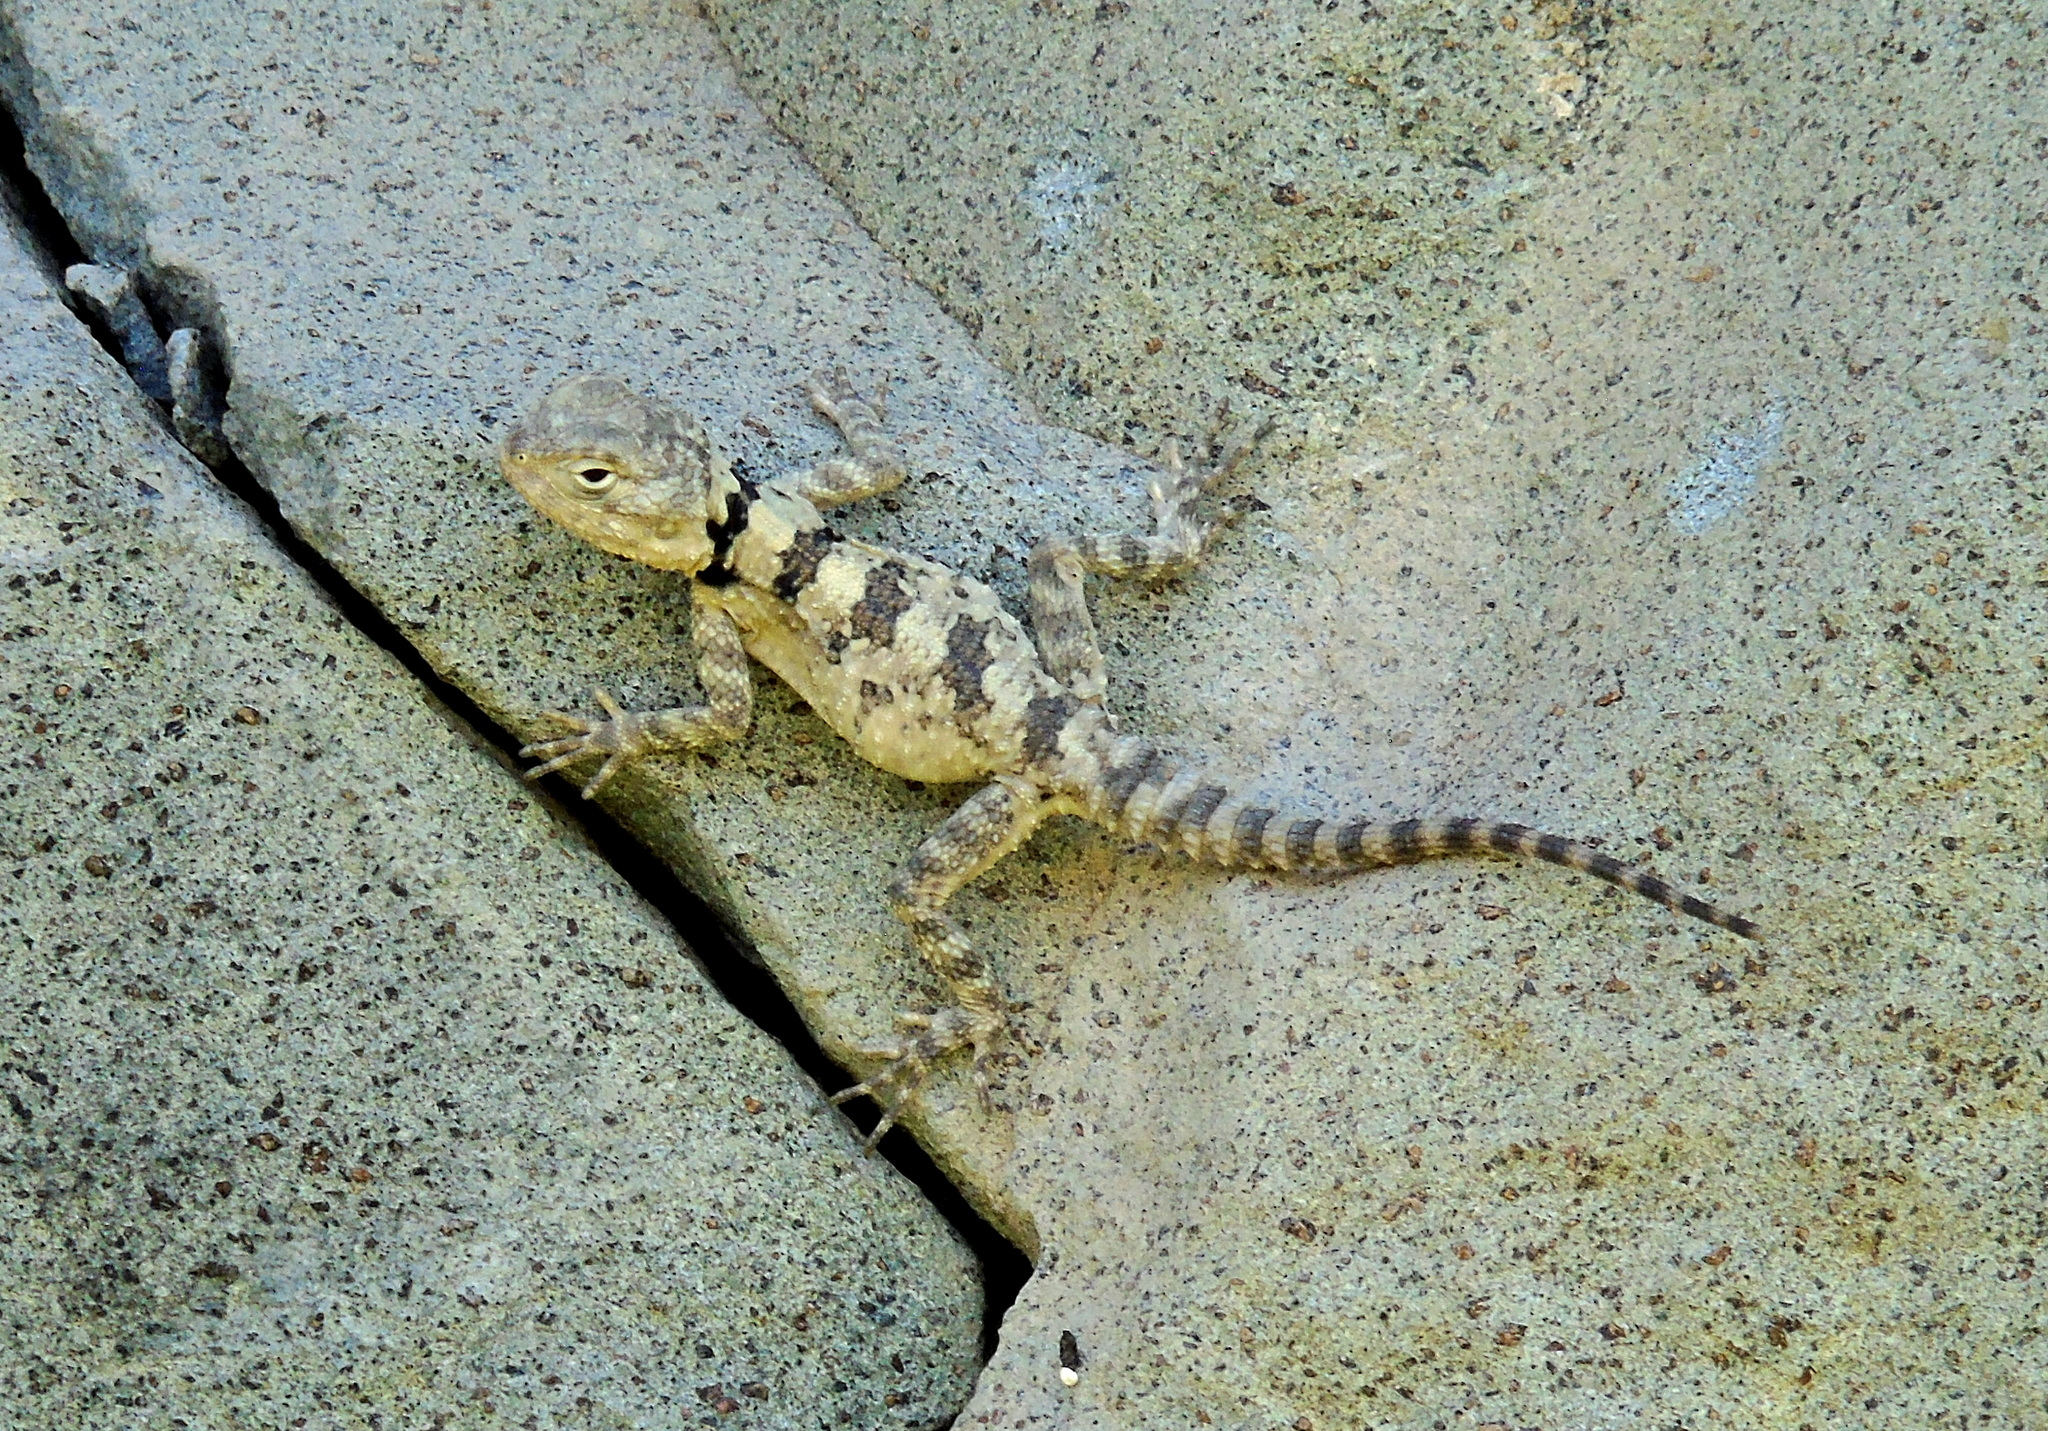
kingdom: Animalia
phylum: Chordata
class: Squamata
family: Agamidae
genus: Stellagama
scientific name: Stellagama stellio
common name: Starred agama
